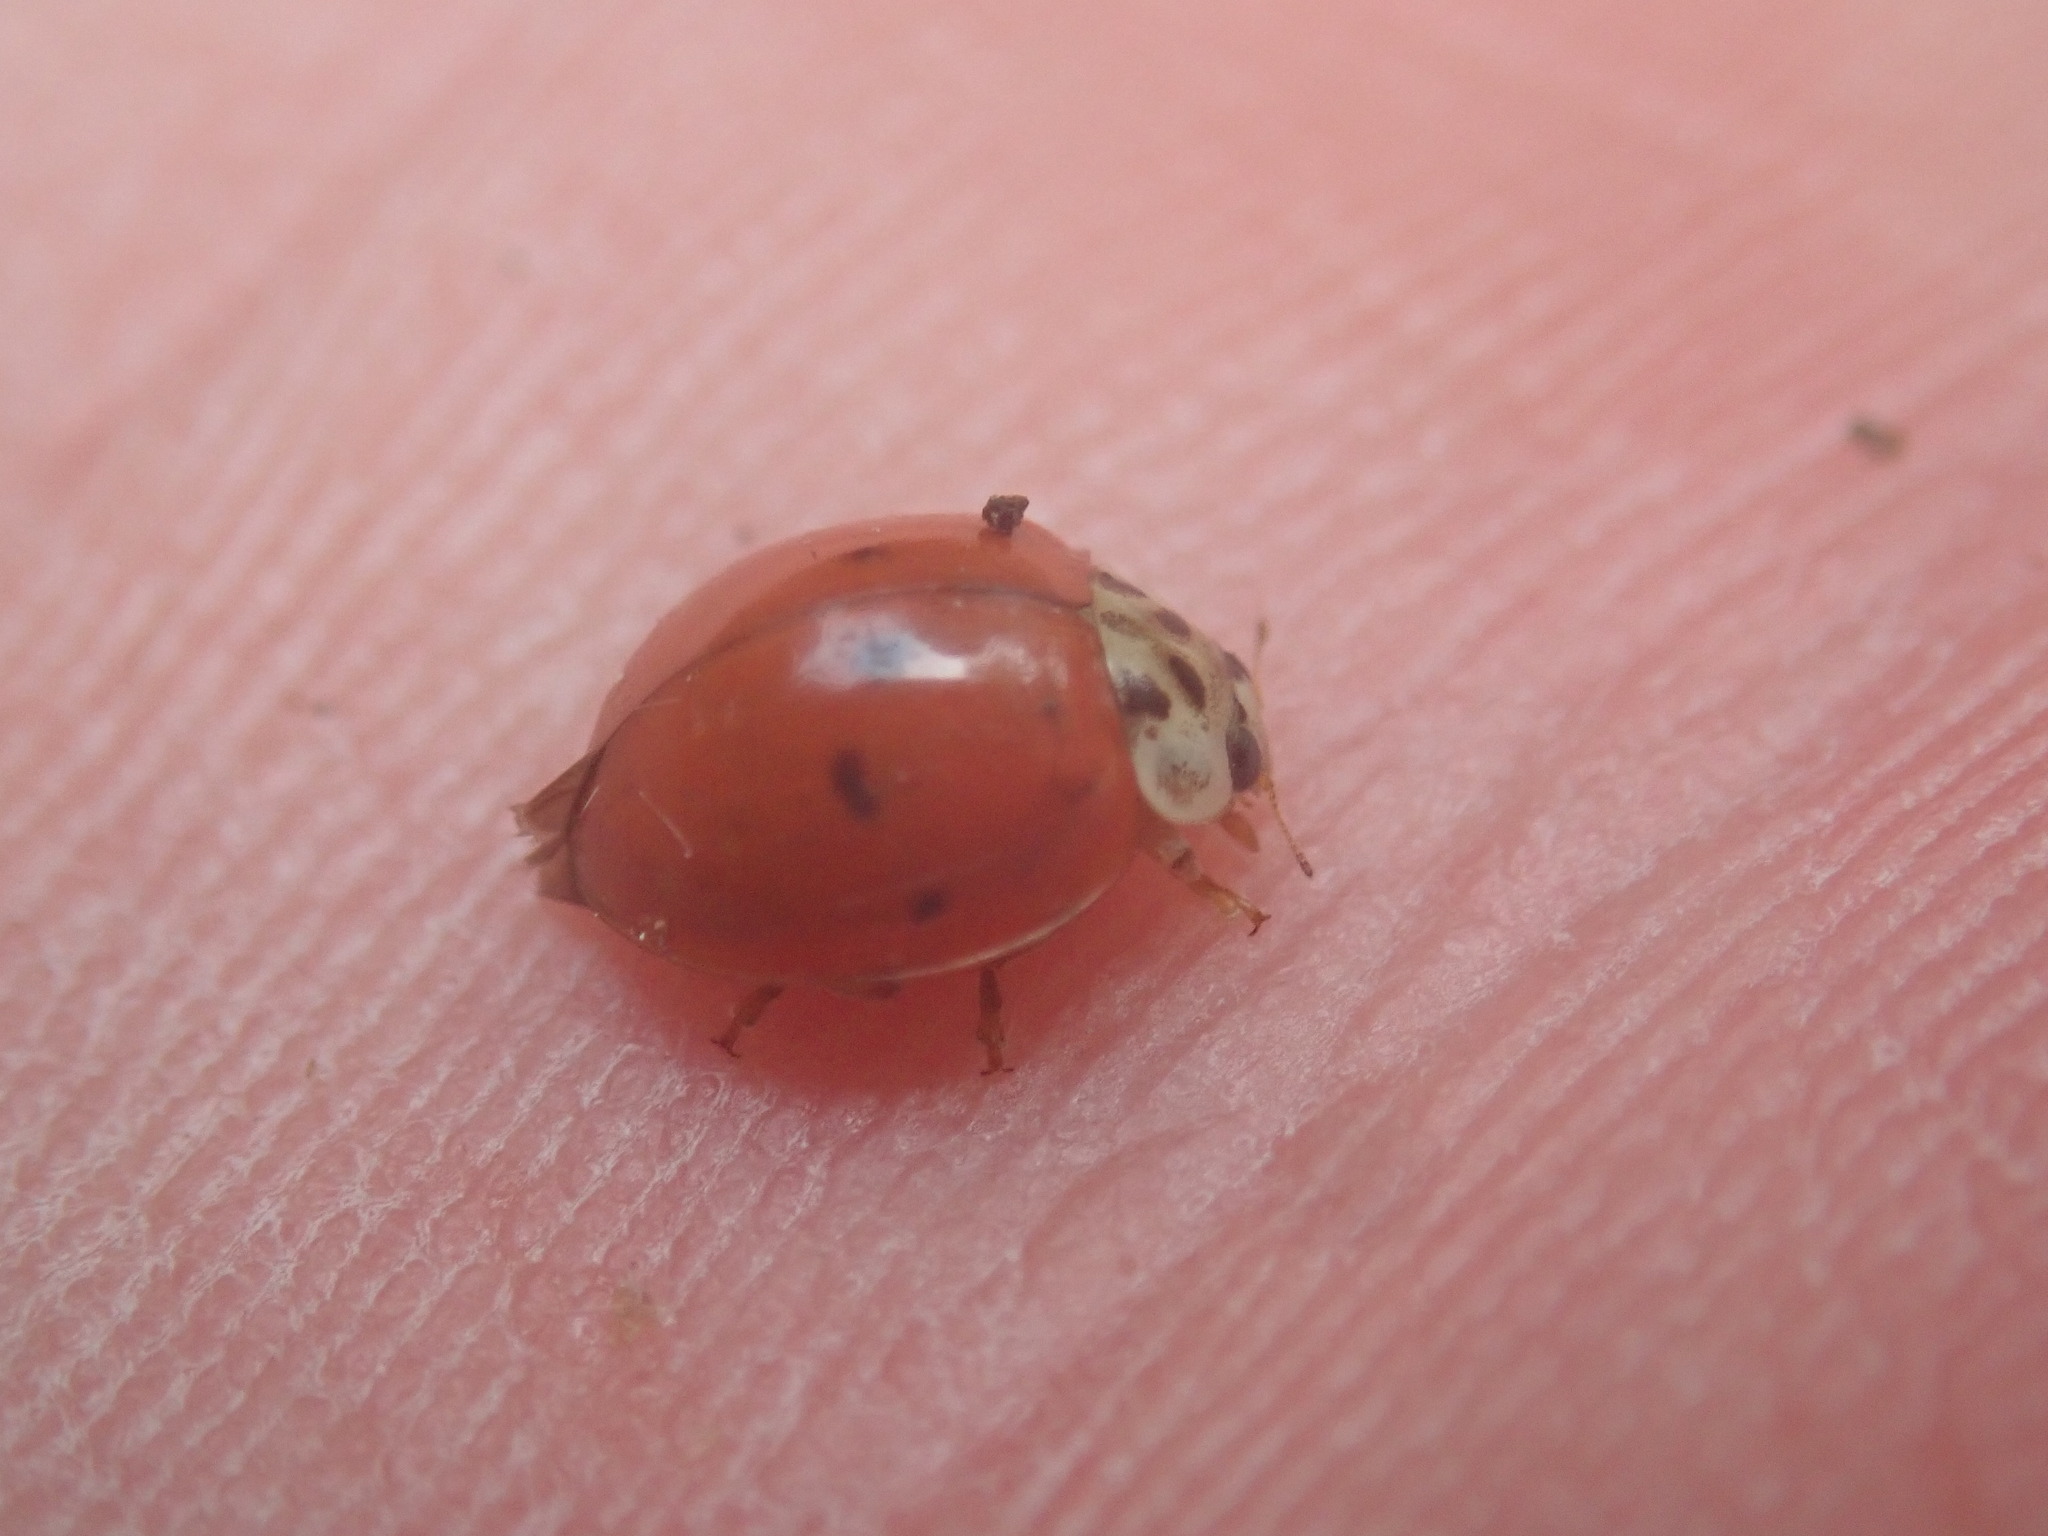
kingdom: Animalia
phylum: Arthropoda
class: Insecta
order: Coleoptera
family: Coccinellidae
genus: Harmonia
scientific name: Harmonia axyridis
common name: Harlequin ladybird
